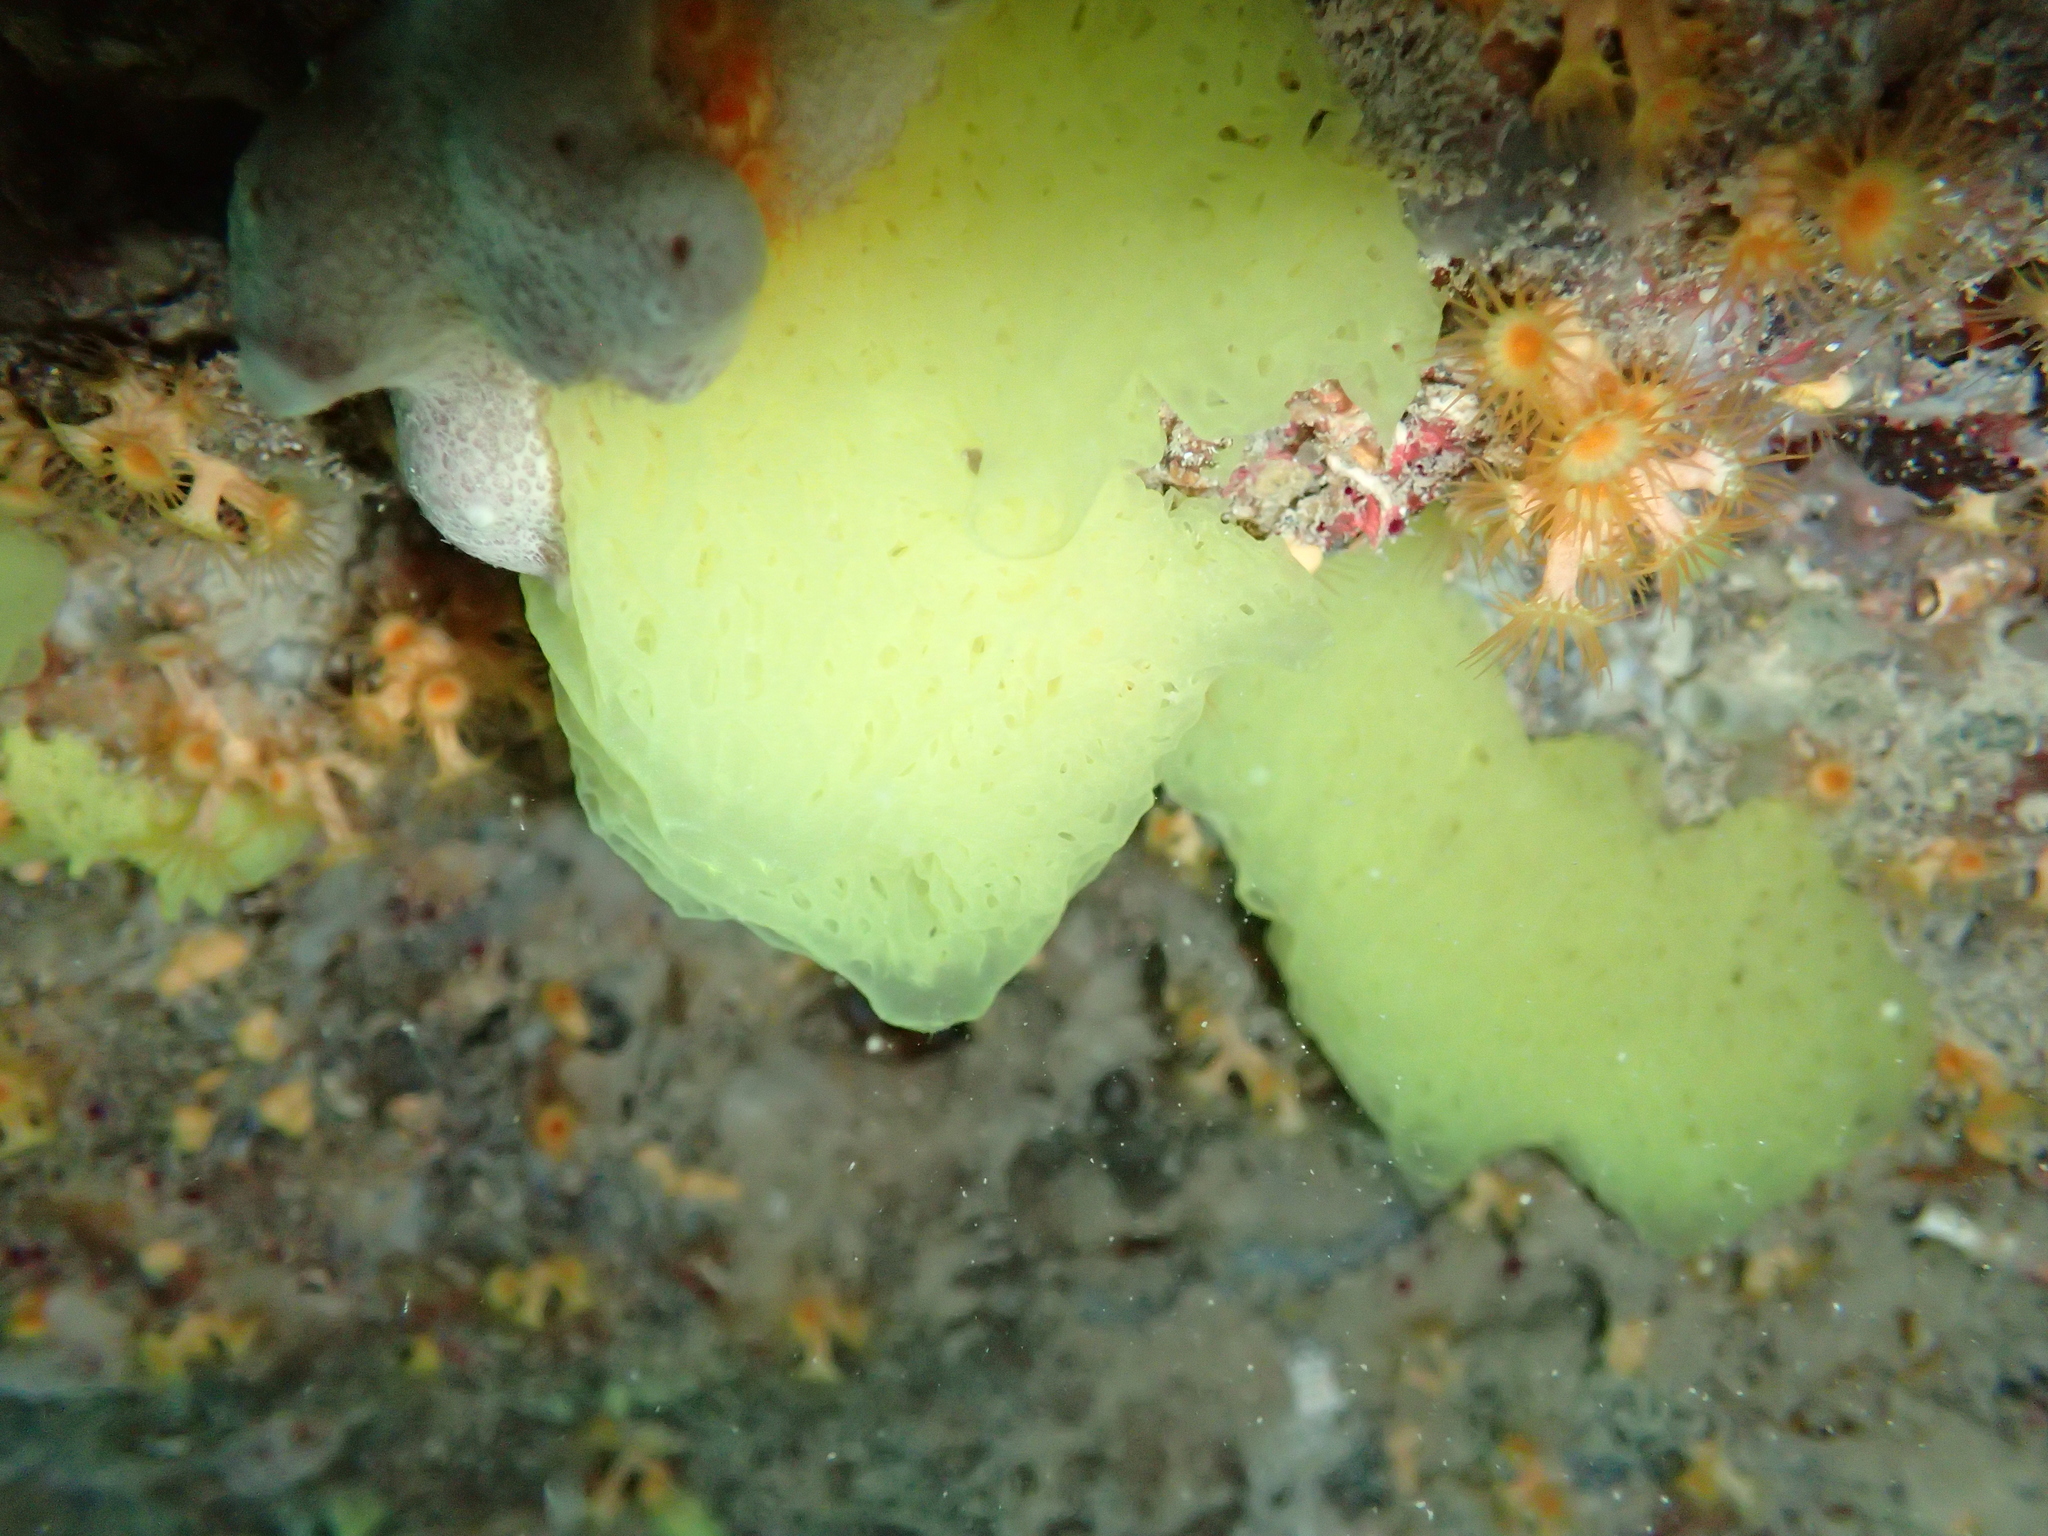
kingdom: Animalia
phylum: Porifera
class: Calcarea
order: Clathrinida
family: Clathrinidae
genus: Clathrina
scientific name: Clathrina clathrus
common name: Yellow clathrina
